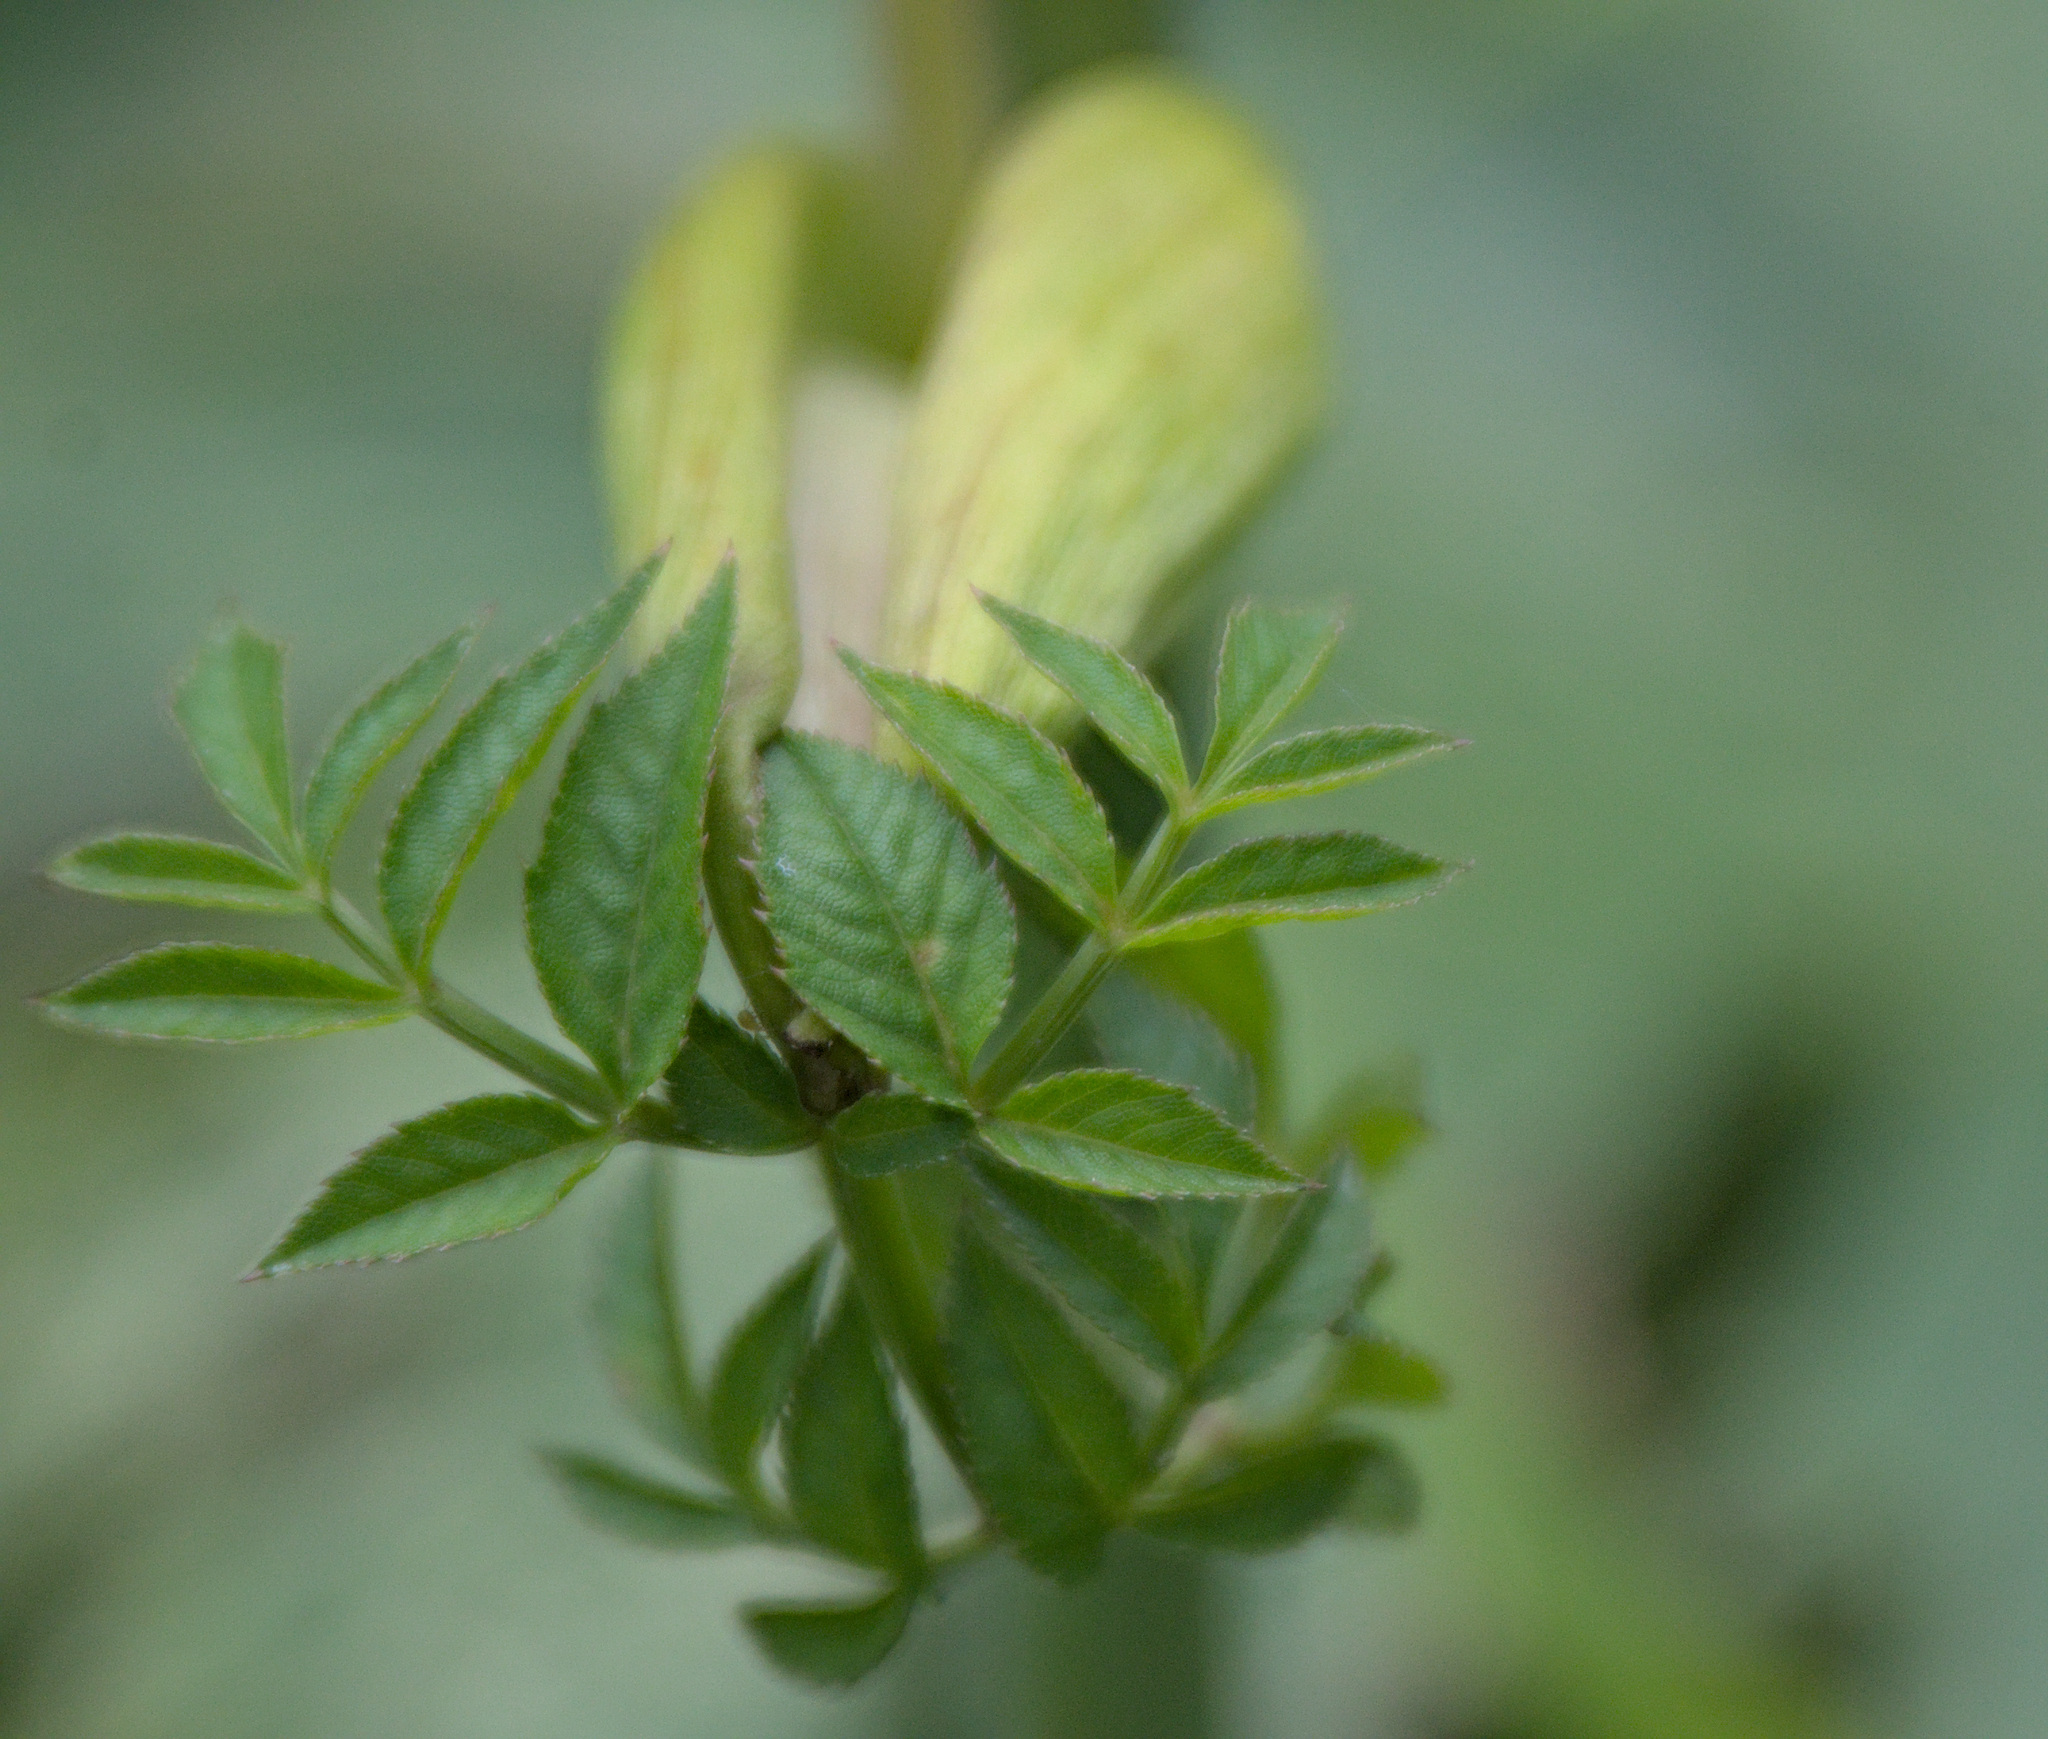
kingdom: Plantae
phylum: Tracheophyta
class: Magnoliopsida
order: Apiales
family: Apiaceae
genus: Angelica
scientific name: Angelica sylvestris
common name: Wild angelica
